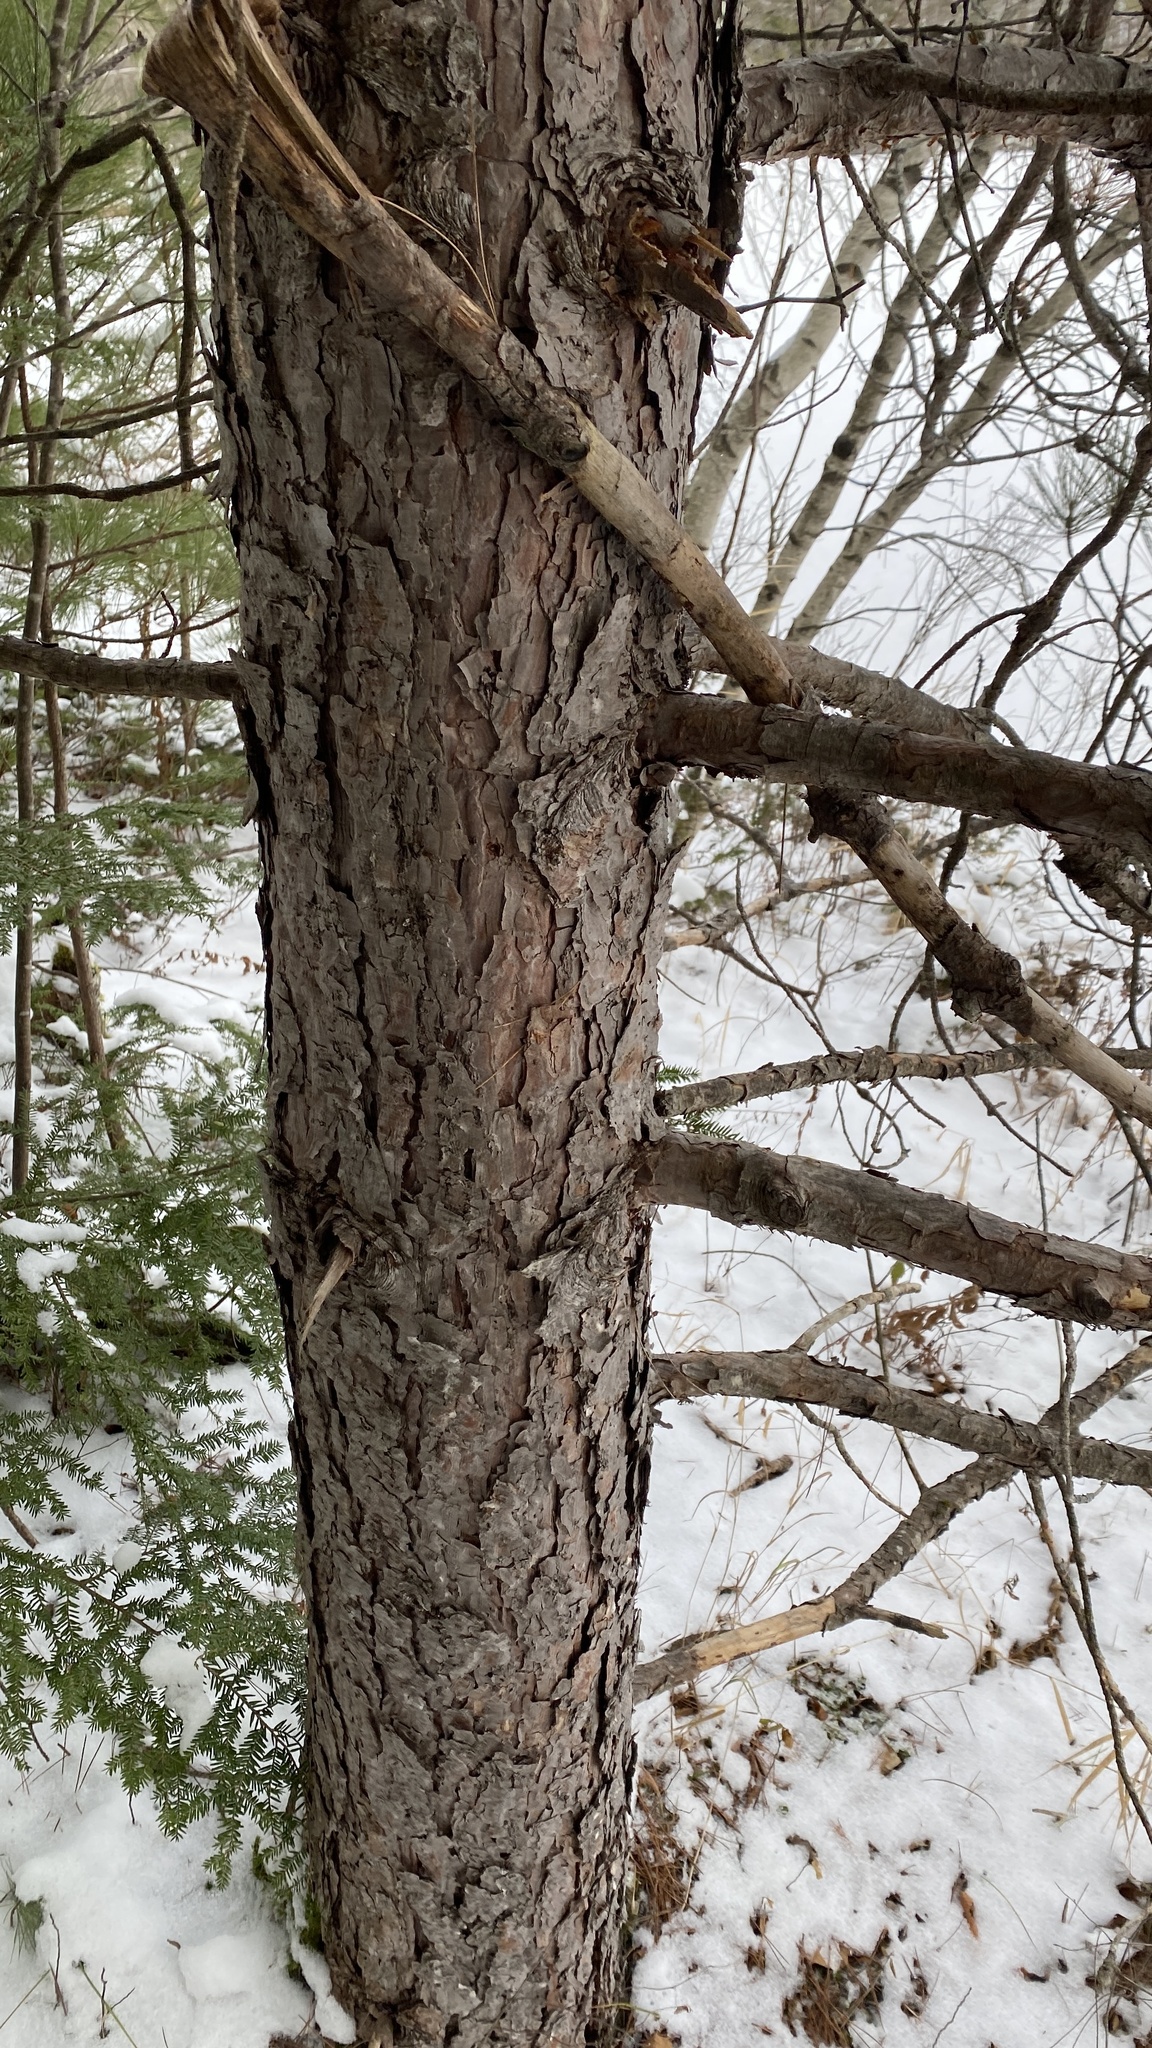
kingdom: Plantae
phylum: Tracheophyta
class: Pinopsida
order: Pinales
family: Pinaceae
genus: Pinus
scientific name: Pinus resinosa
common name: Norway pine
